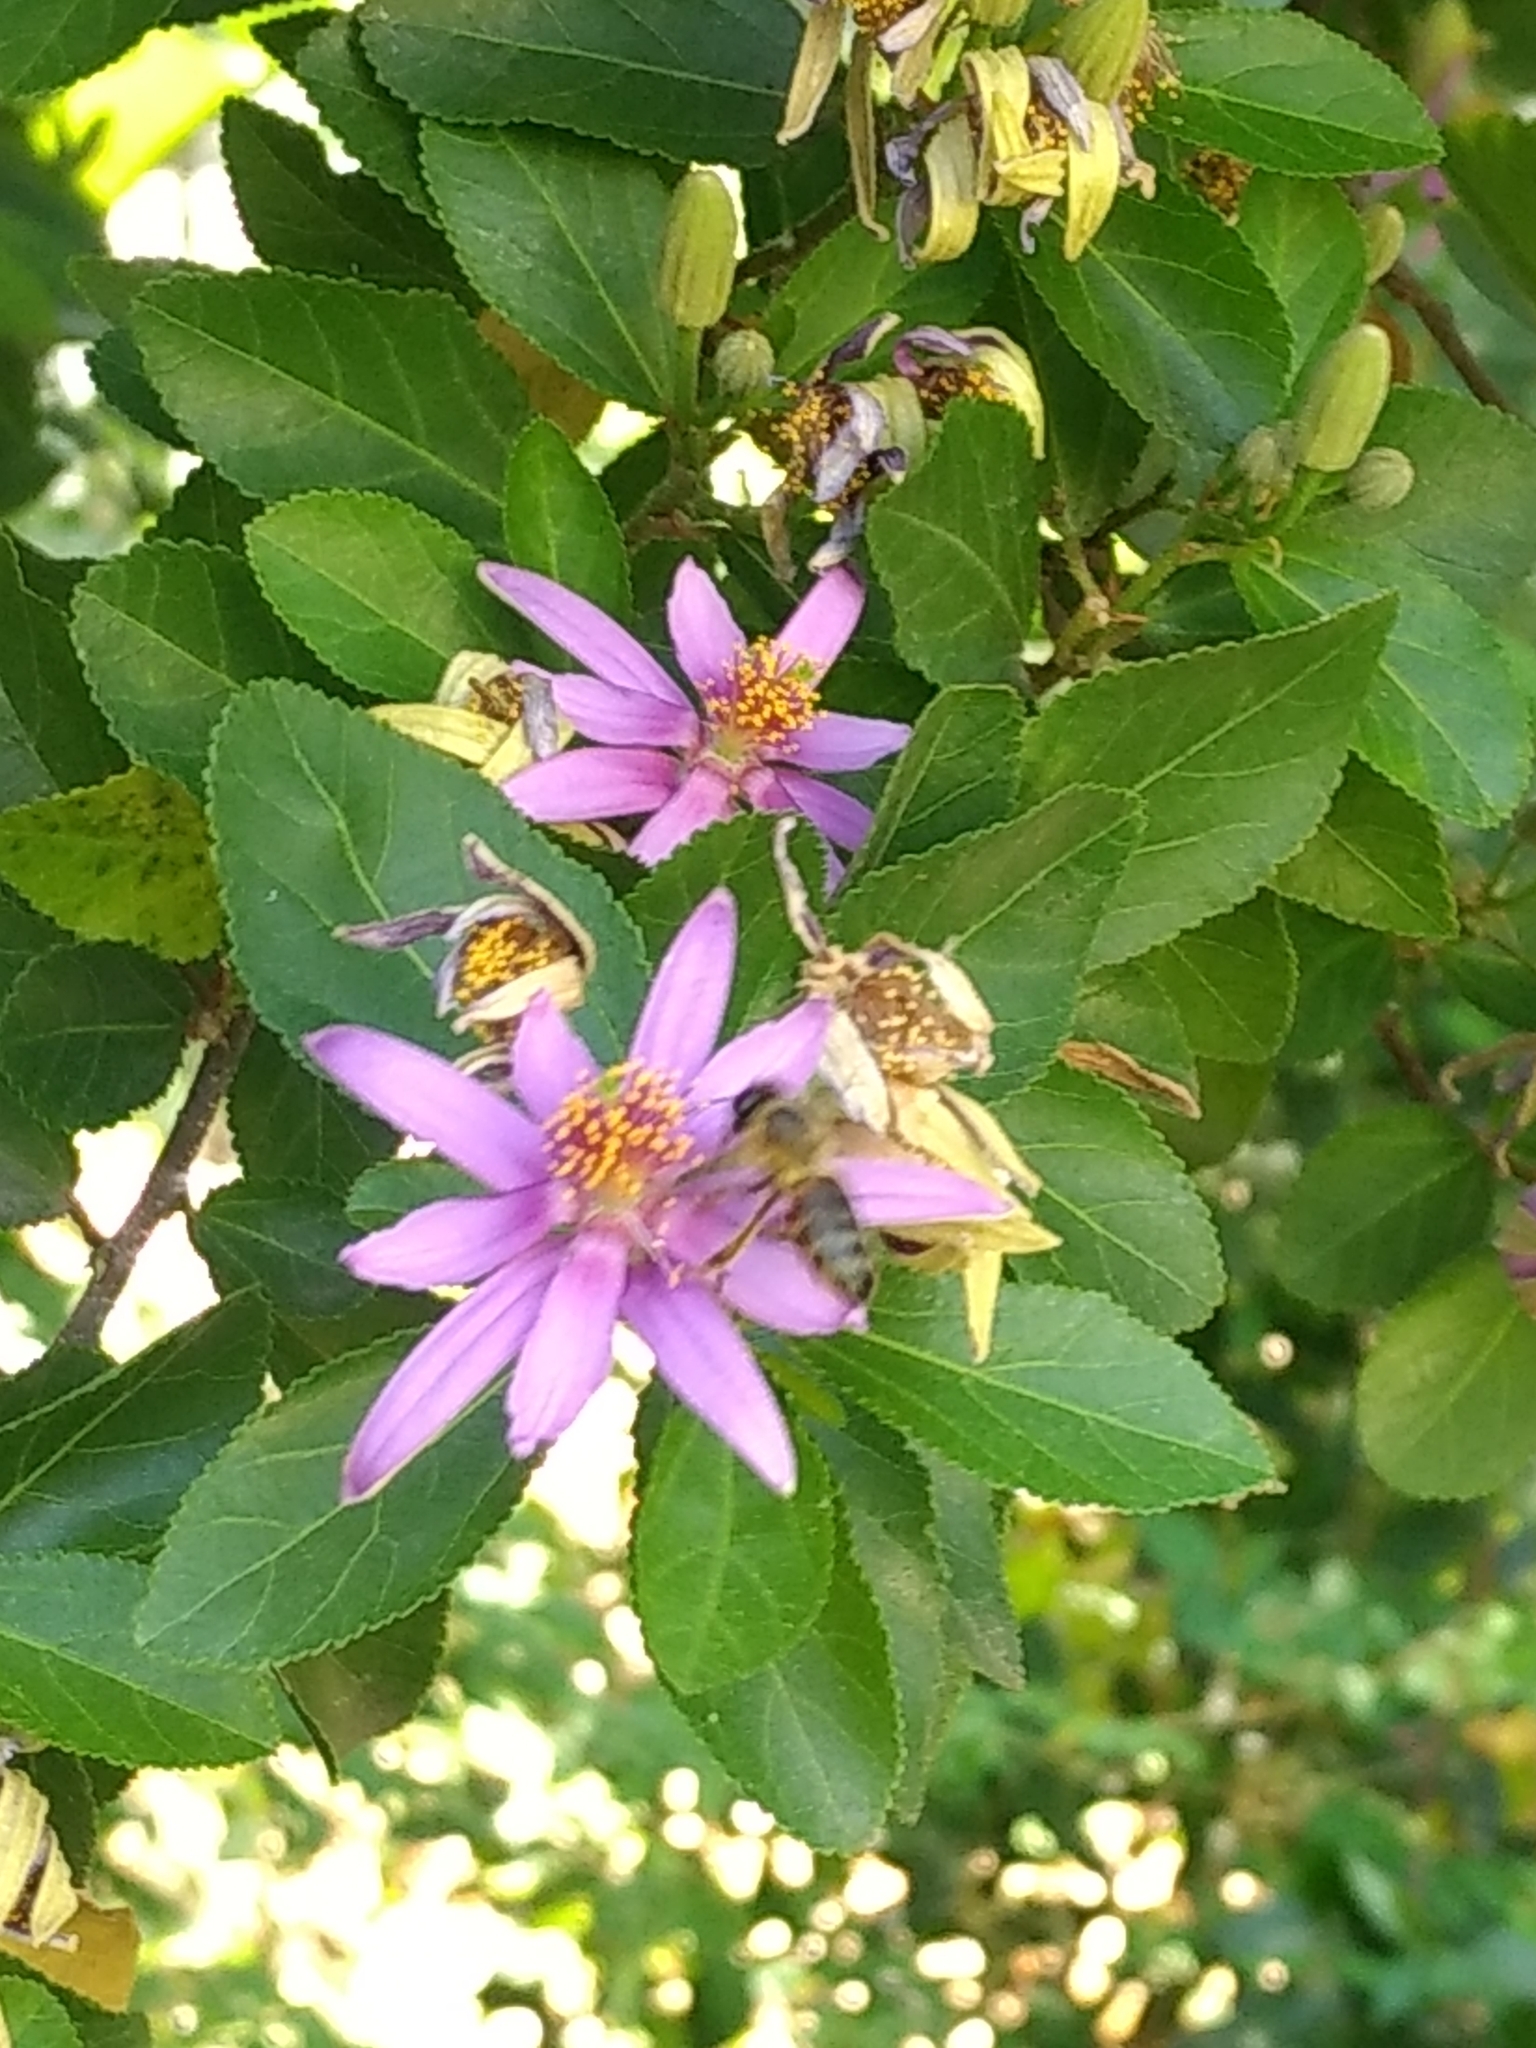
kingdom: Animalia
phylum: Arthropoda
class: Insecta
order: Hymenoptera
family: Apidae
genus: Apis
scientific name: Apis mellifera
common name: Honey bee
